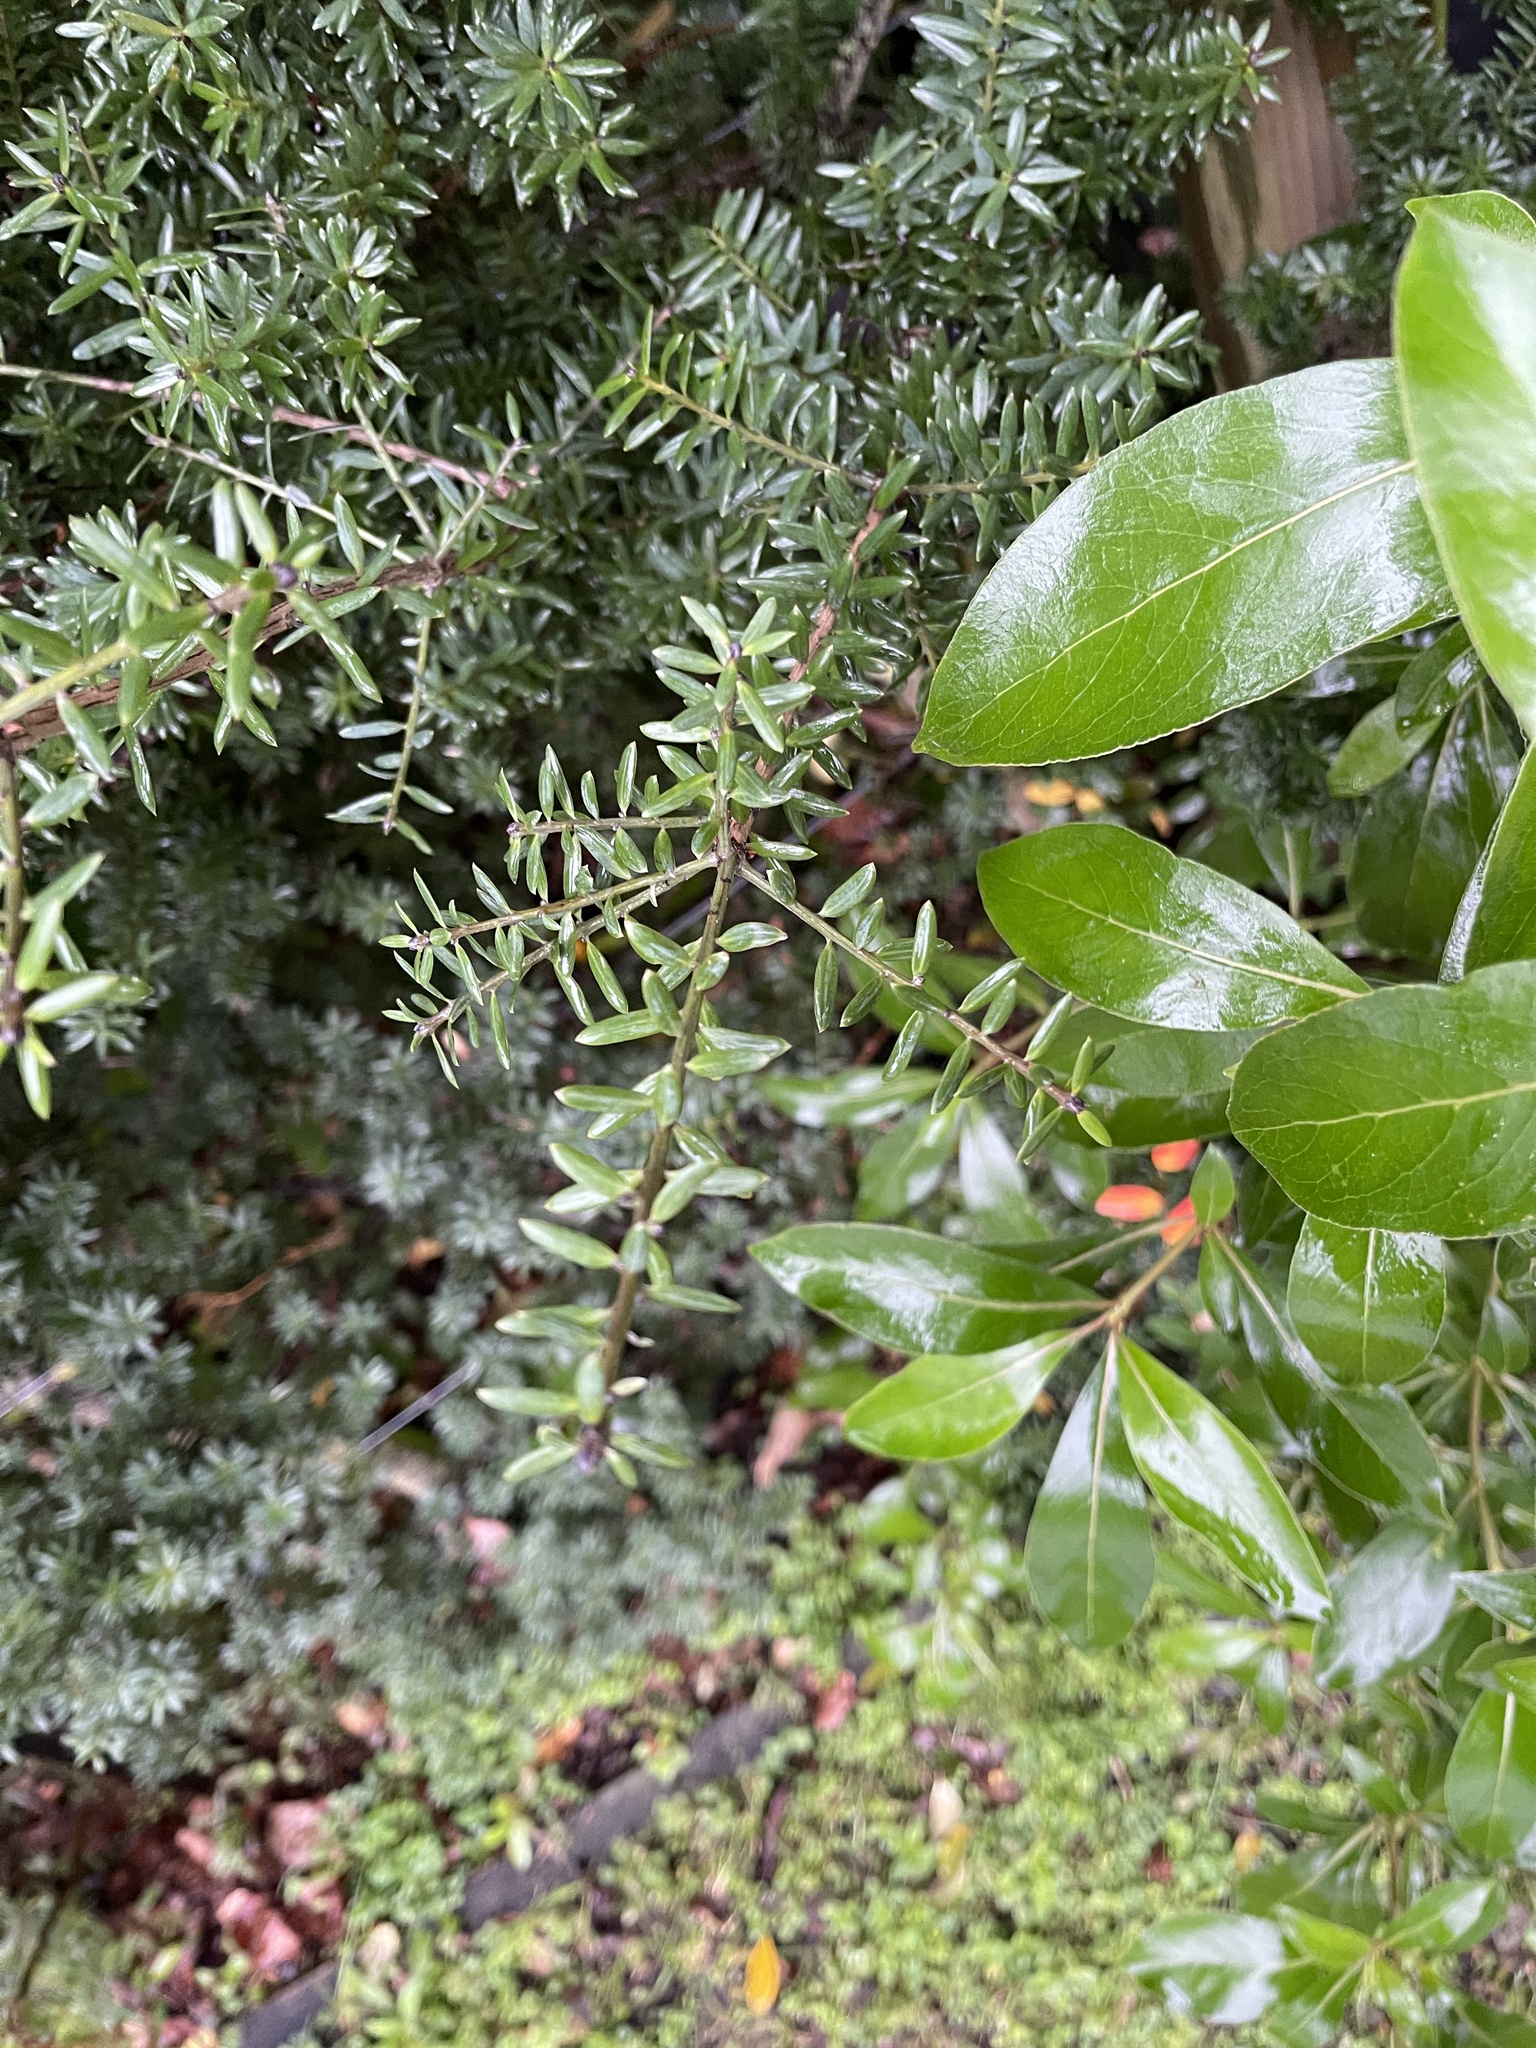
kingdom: Plantae
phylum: Tracheophyta
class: Pinopsida
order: Pinales
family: Podocarpaceae
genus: Podocarpus
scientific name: Podocarpus totara
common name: Totara
